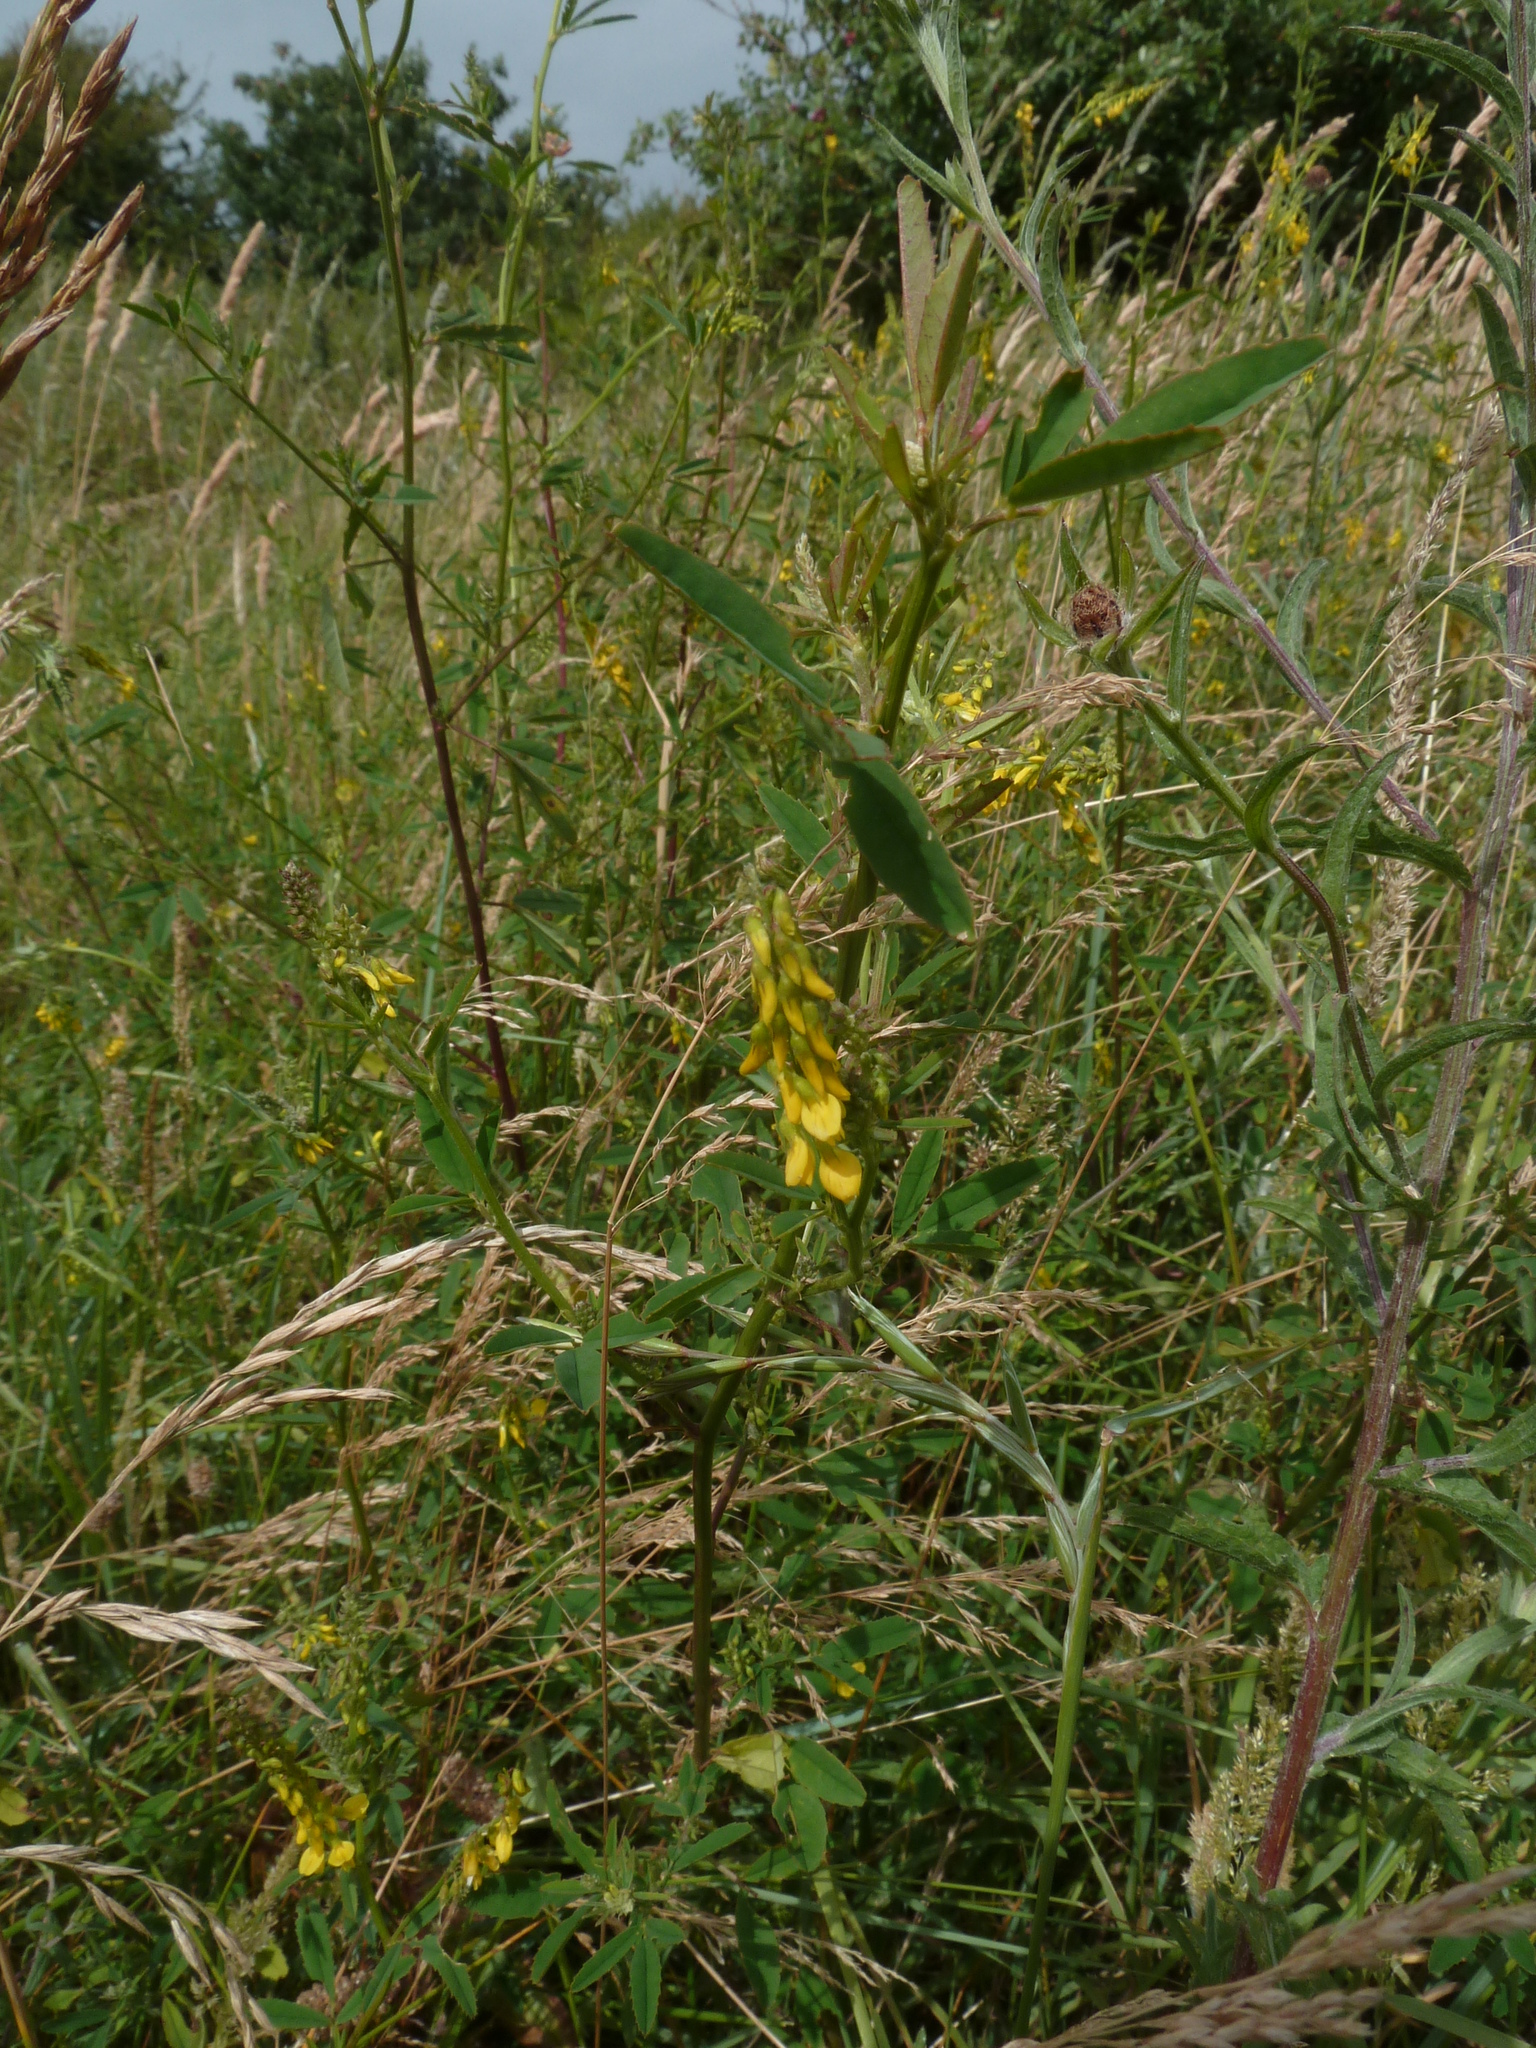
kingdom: Plantae
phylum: Tracheophyta
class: Magnoliopsida
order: Fabales
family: Fabaceae
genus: Melilotus
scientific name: Melilotus officinalis
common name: Sweetclover
